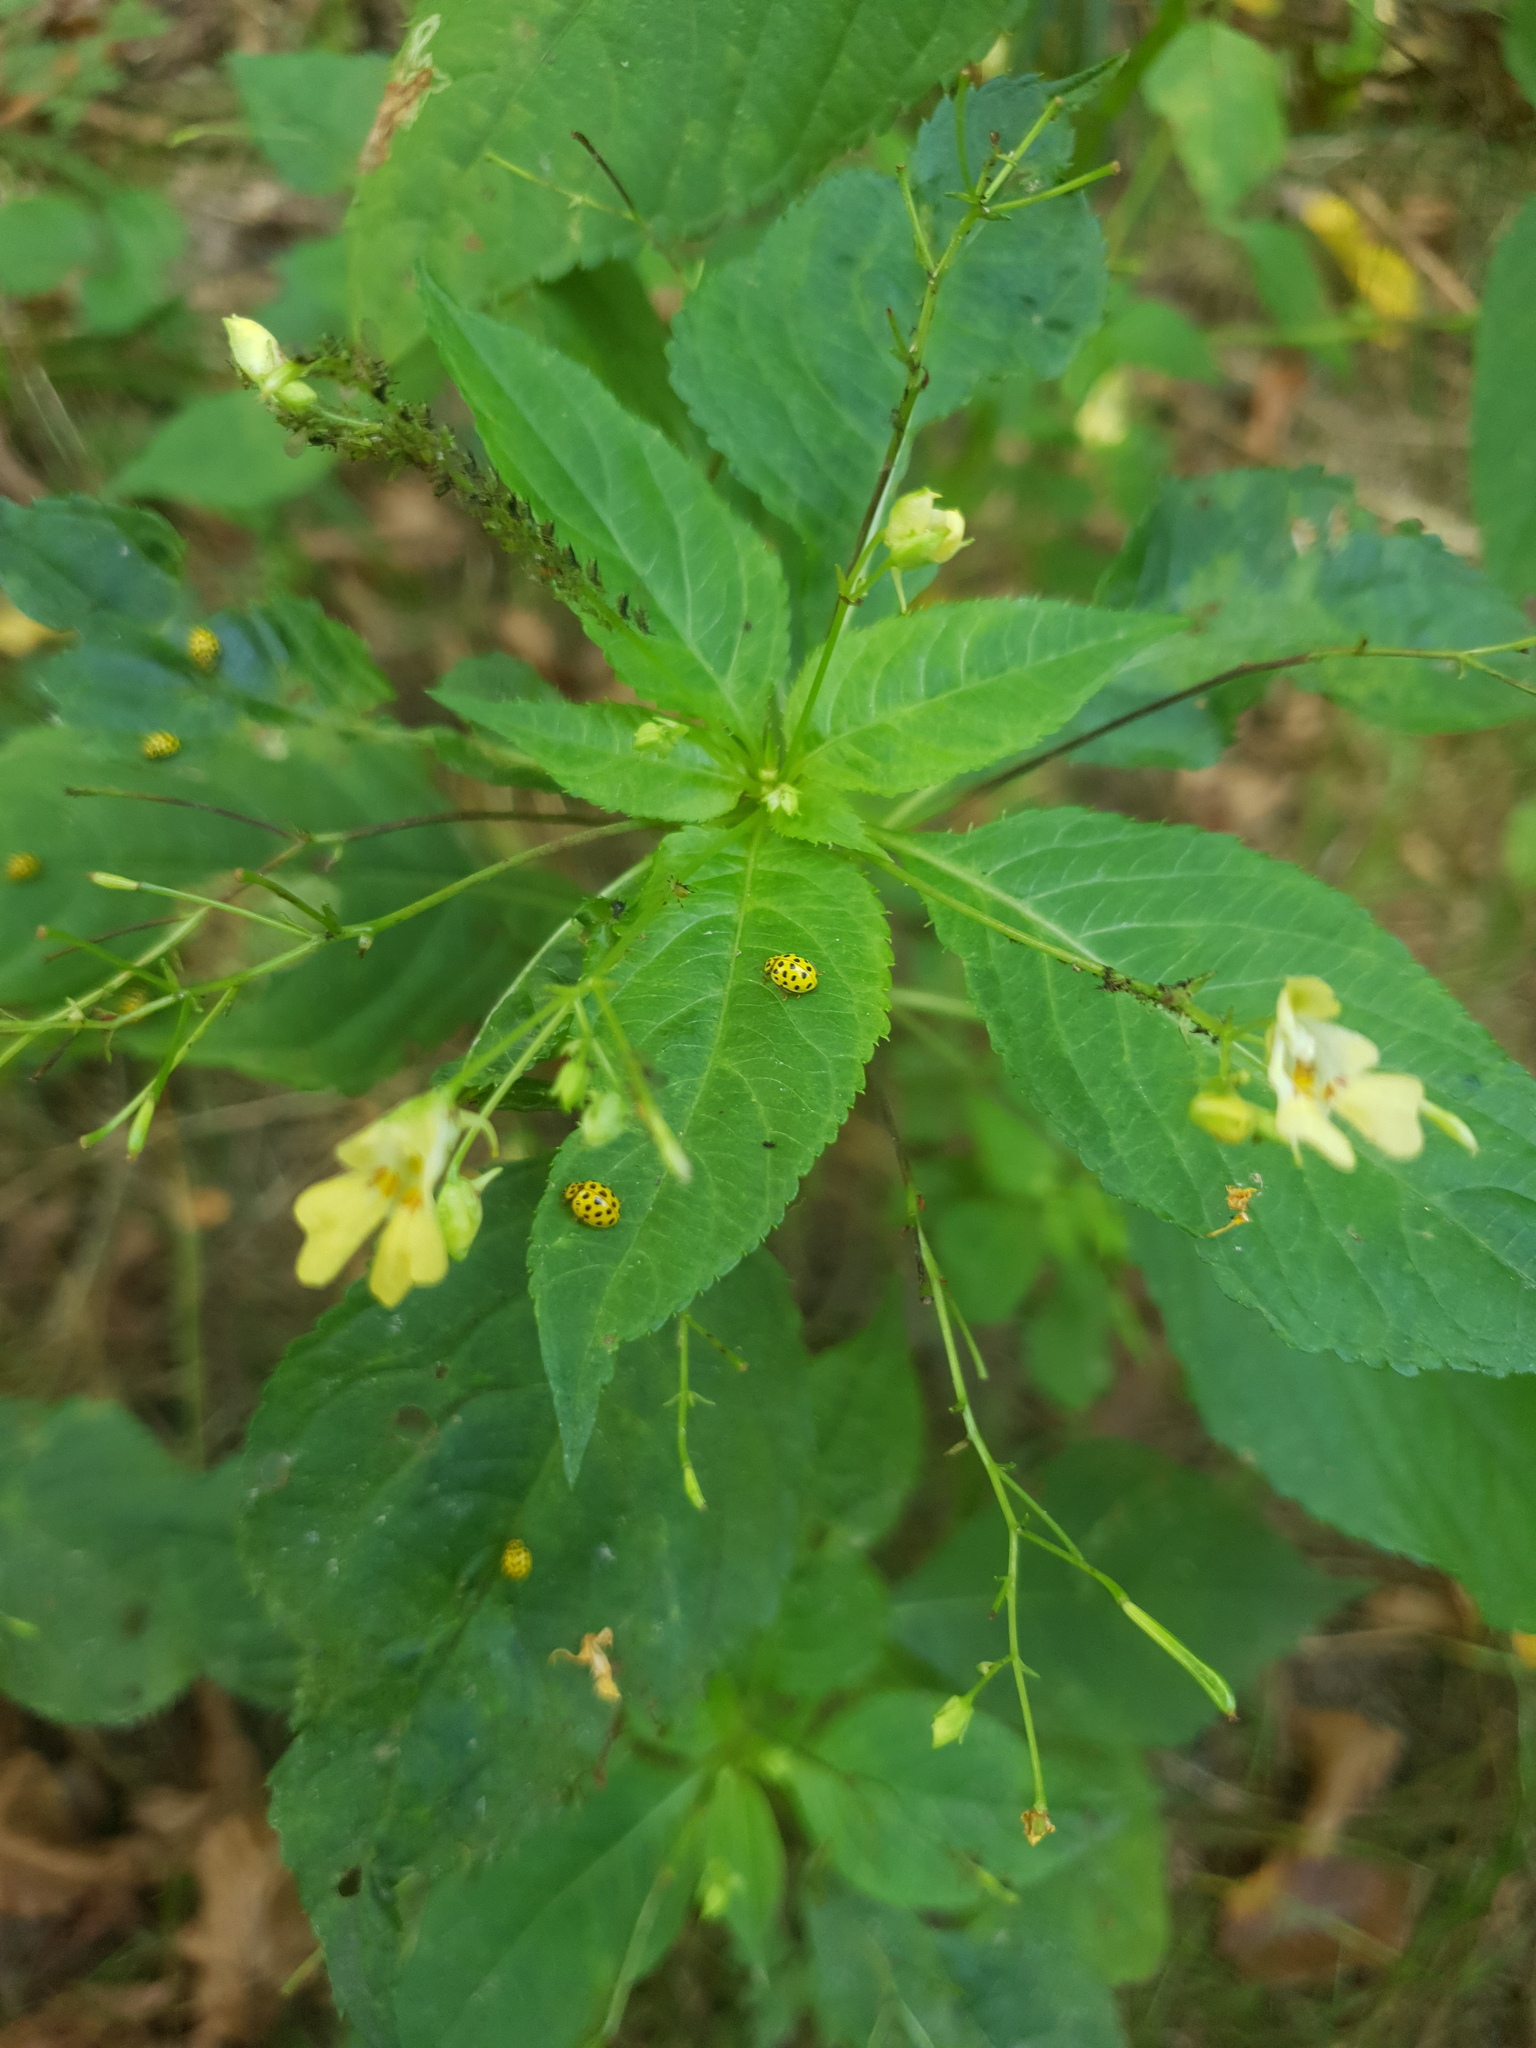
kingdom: Animalia
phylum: Arthropoda
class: Insecta
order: Coleoptera
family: Coccinellidae
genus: Psyllobora
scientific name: Psyllobora vigintiduopunctata
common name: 22-spot ladybird
